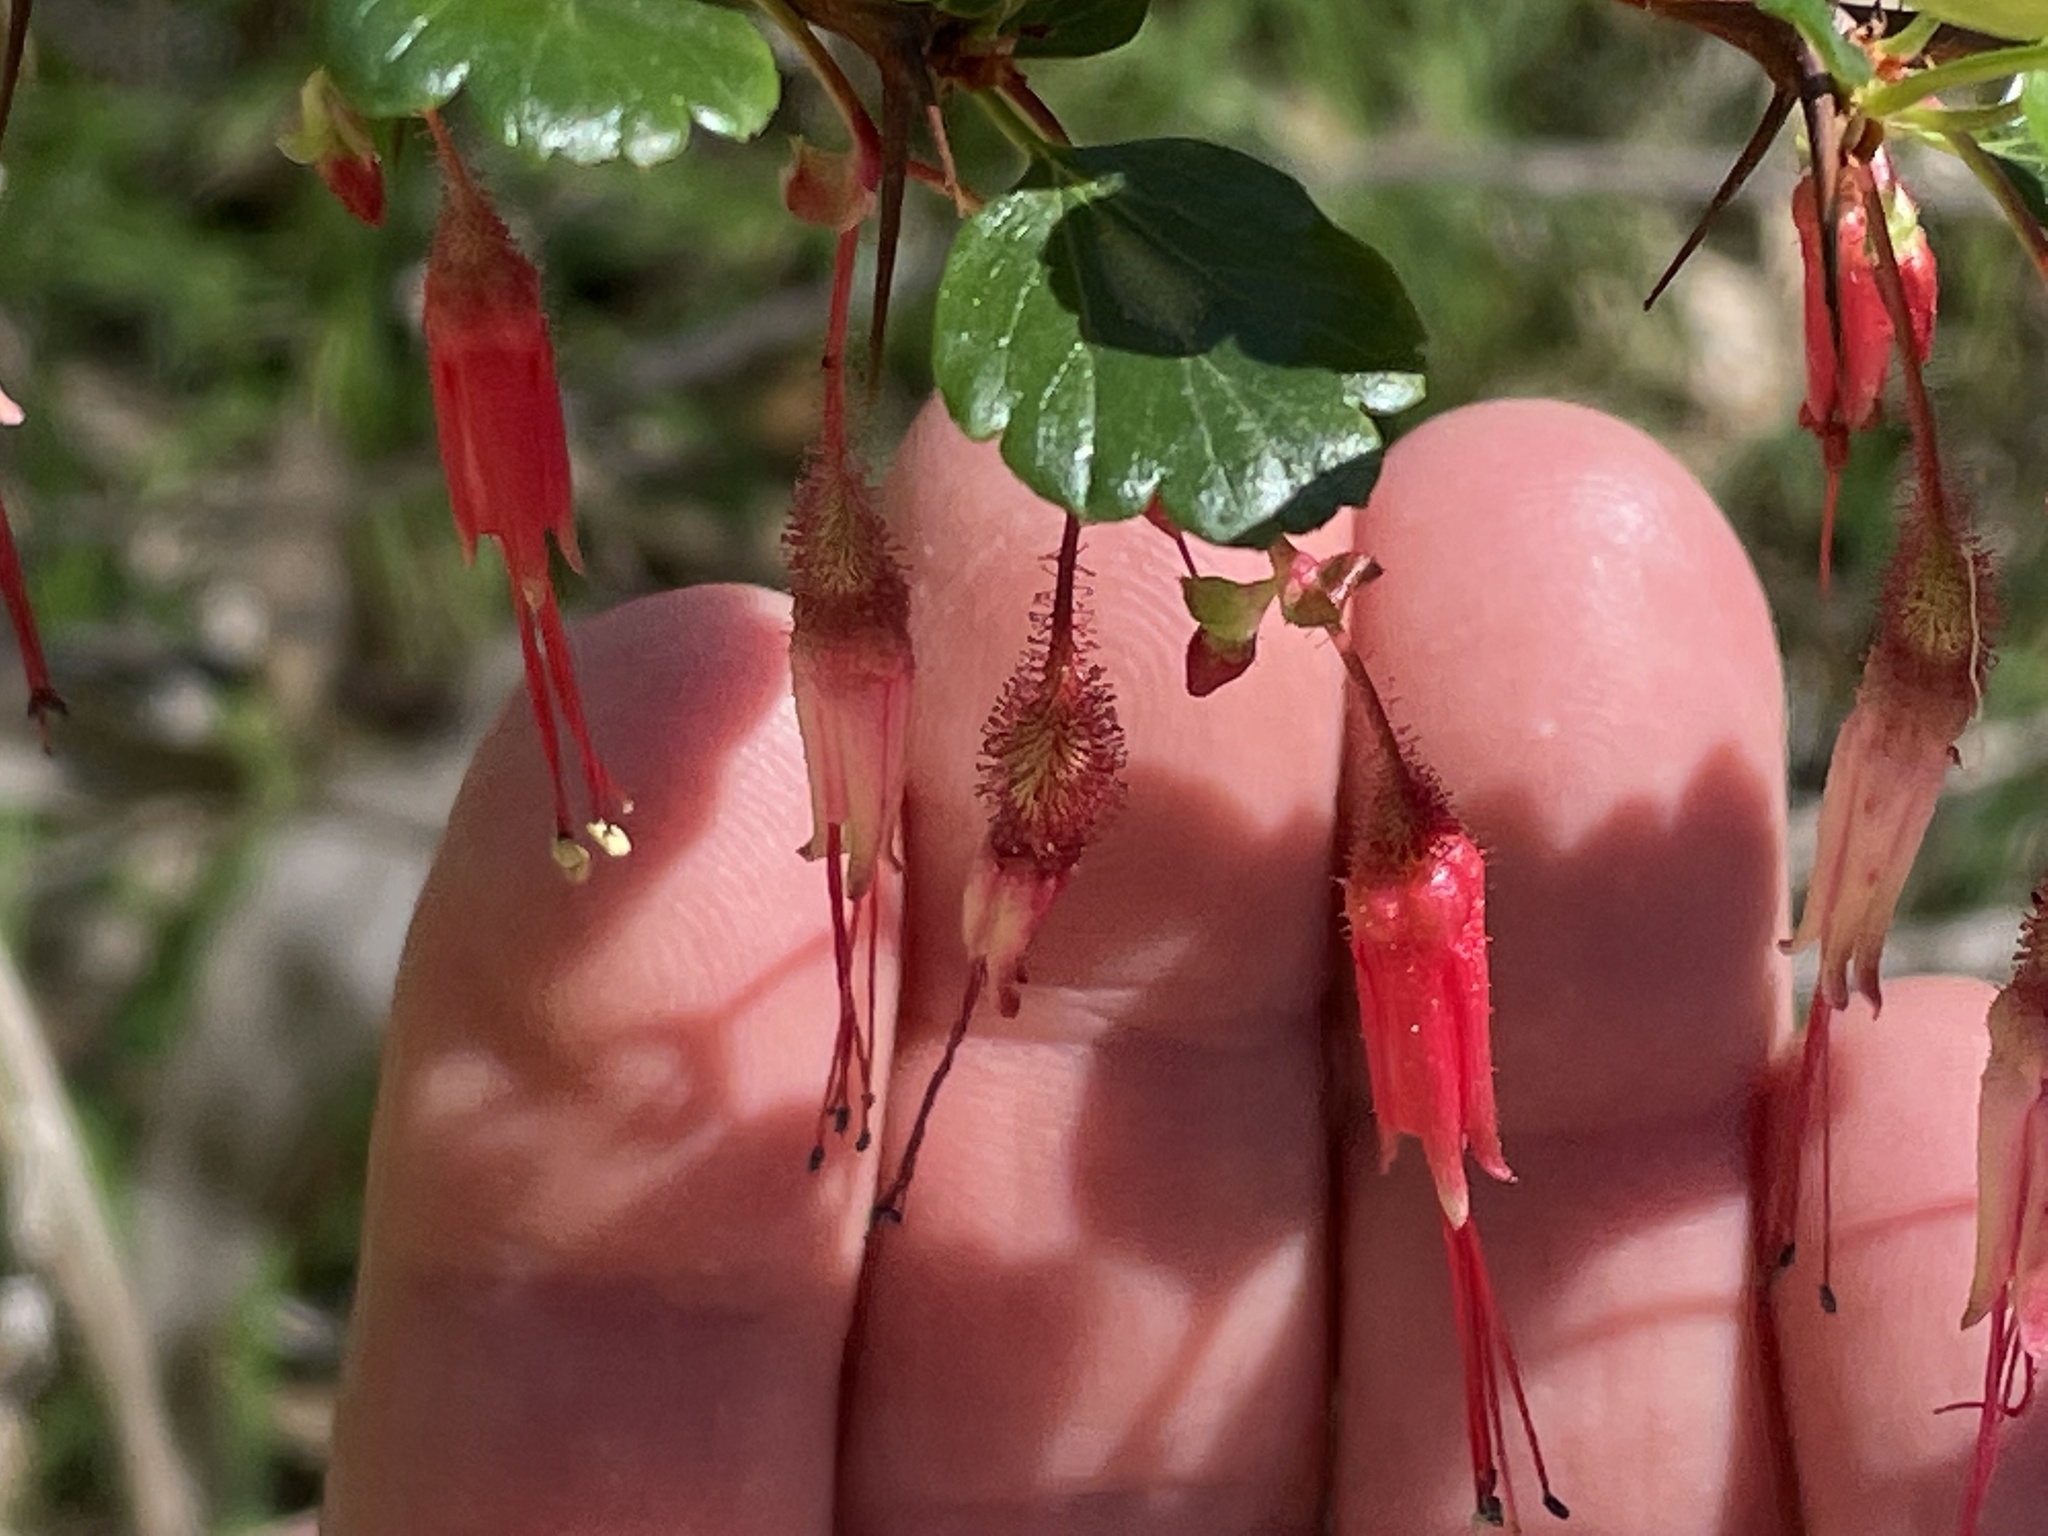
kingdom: Plantae
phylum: Tracheophyta
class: Magnoliopsida
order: Saxifragales
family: Grossulariaceae
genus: Ribes
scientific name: Ribes speciosum
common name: Fuchsia-flower gooseberry
